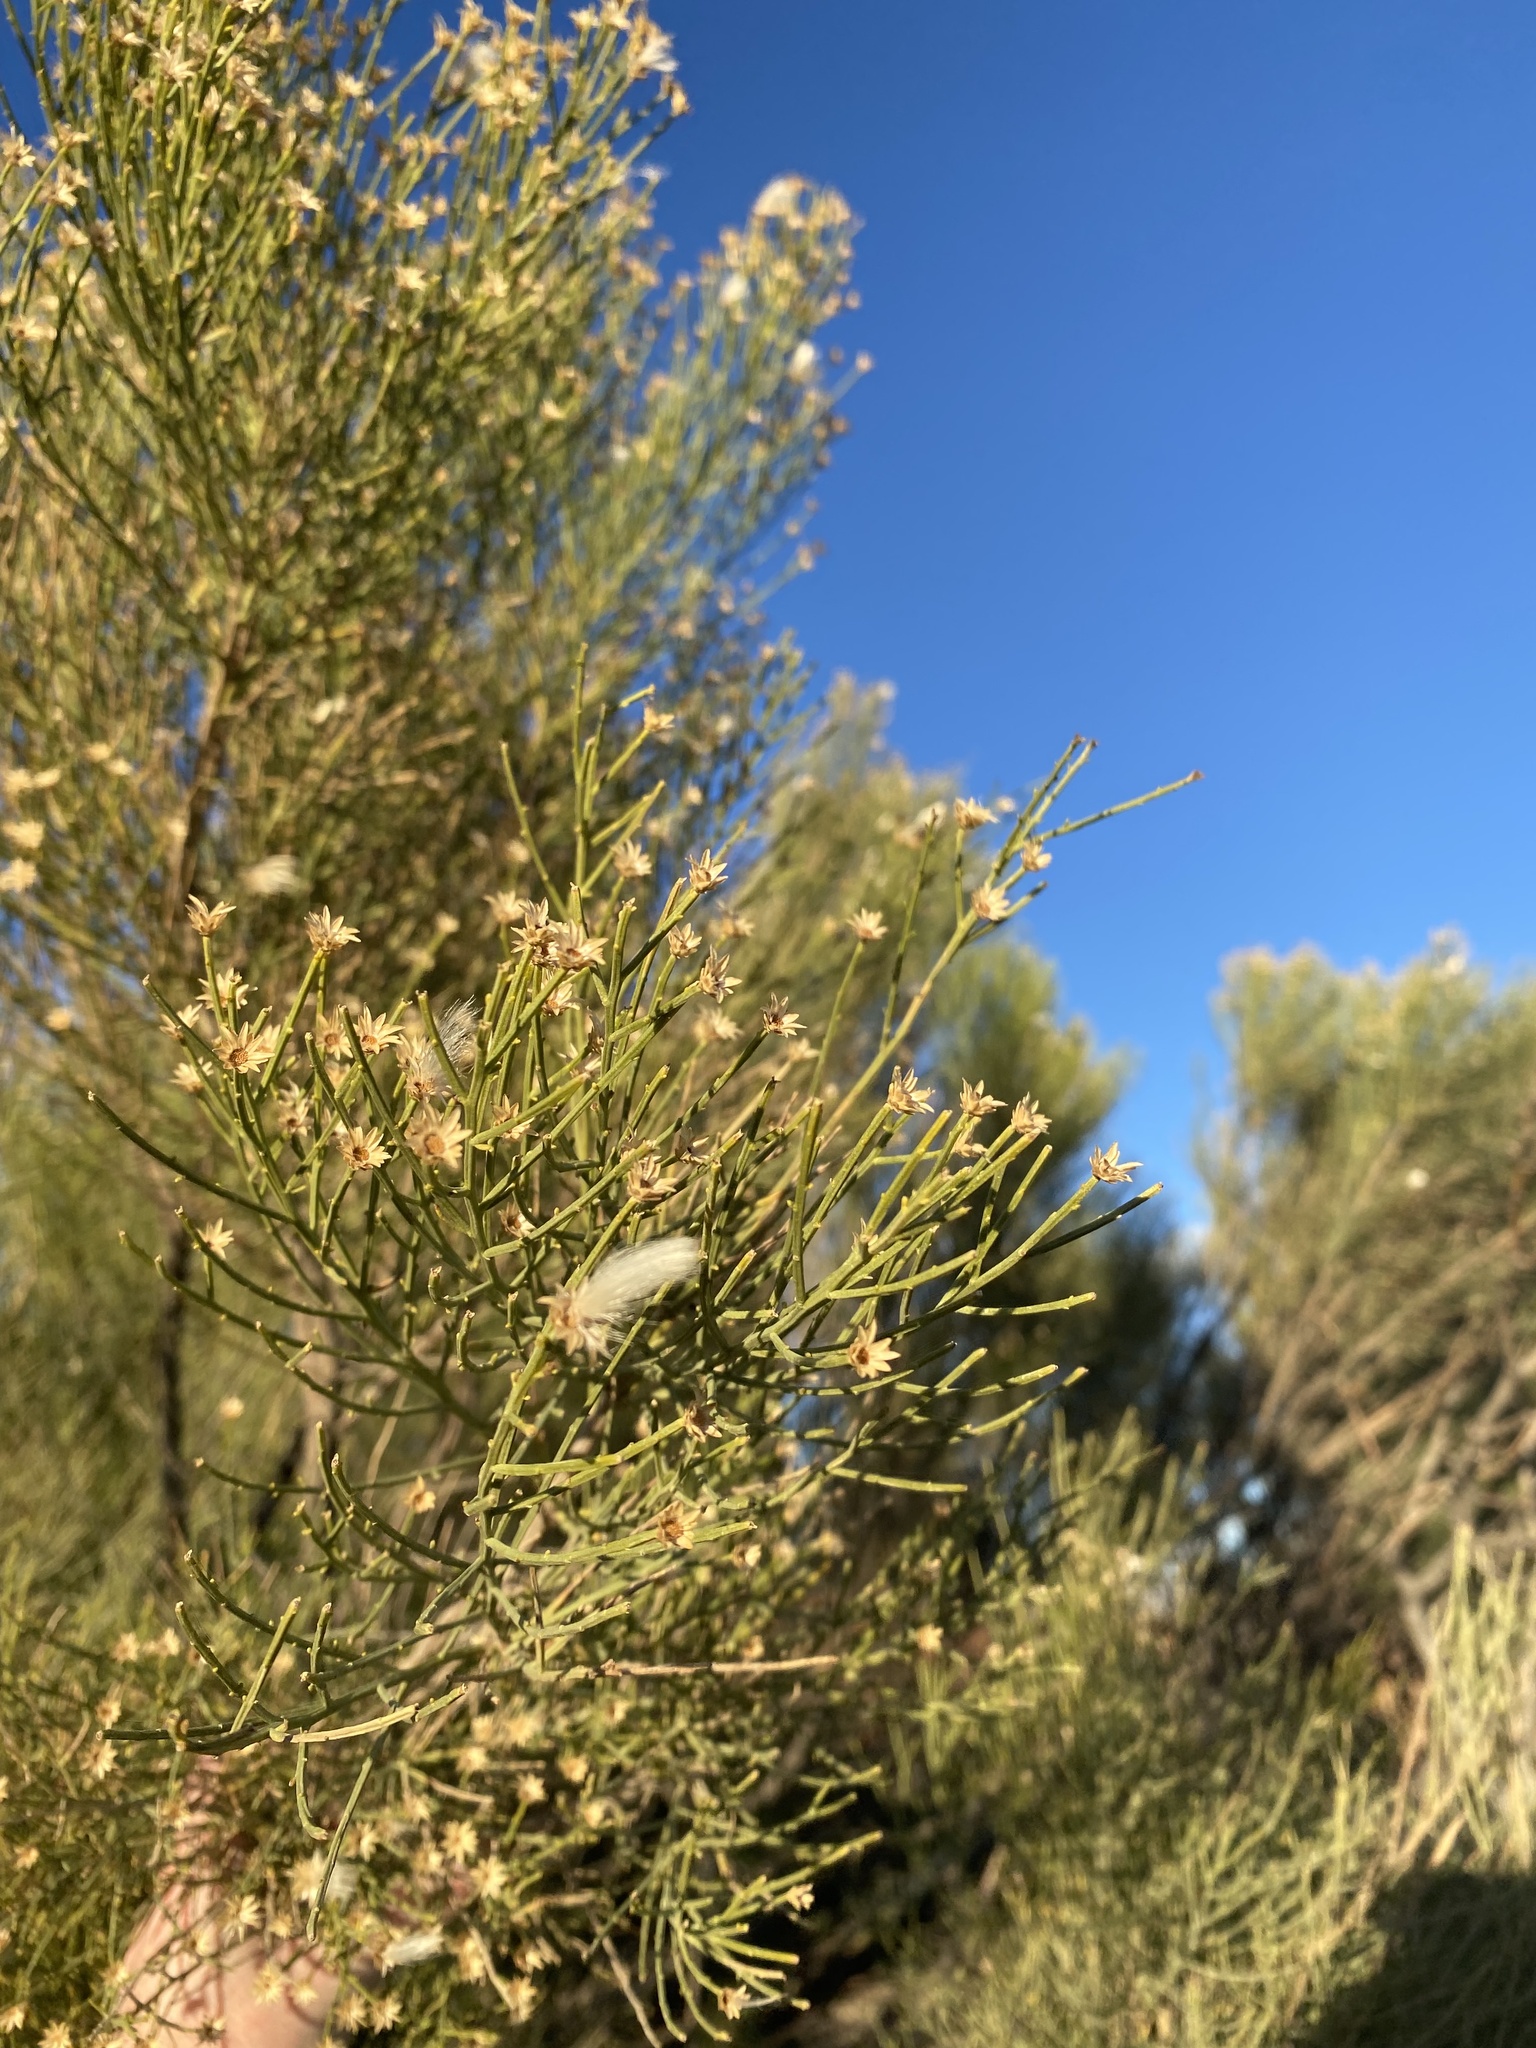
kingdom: Plantae
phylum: Tracheophyta
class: Magnoliopsida
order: Asterales
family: Asteraceae
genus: Baccharis
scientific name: Baccharis sarothroides
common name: Desert-broom
